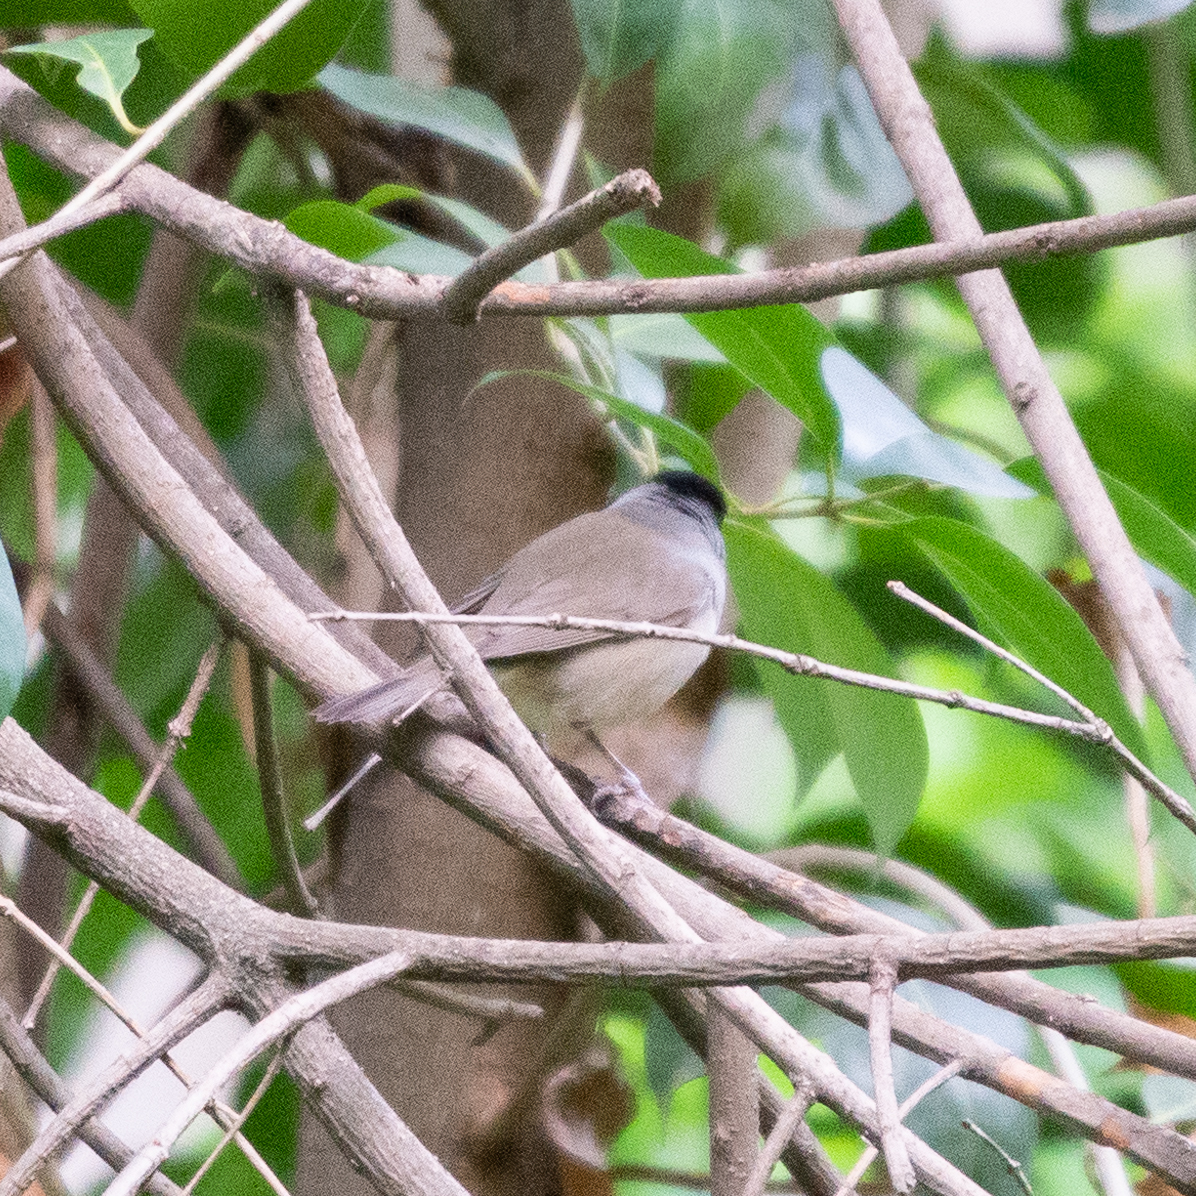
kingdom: Animalia
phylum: Chordata
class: Aves
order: Passeriformes
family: Sylviidae
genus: Sylvia
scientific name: Sylvia atricapilla
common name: Eurasian blackcap
